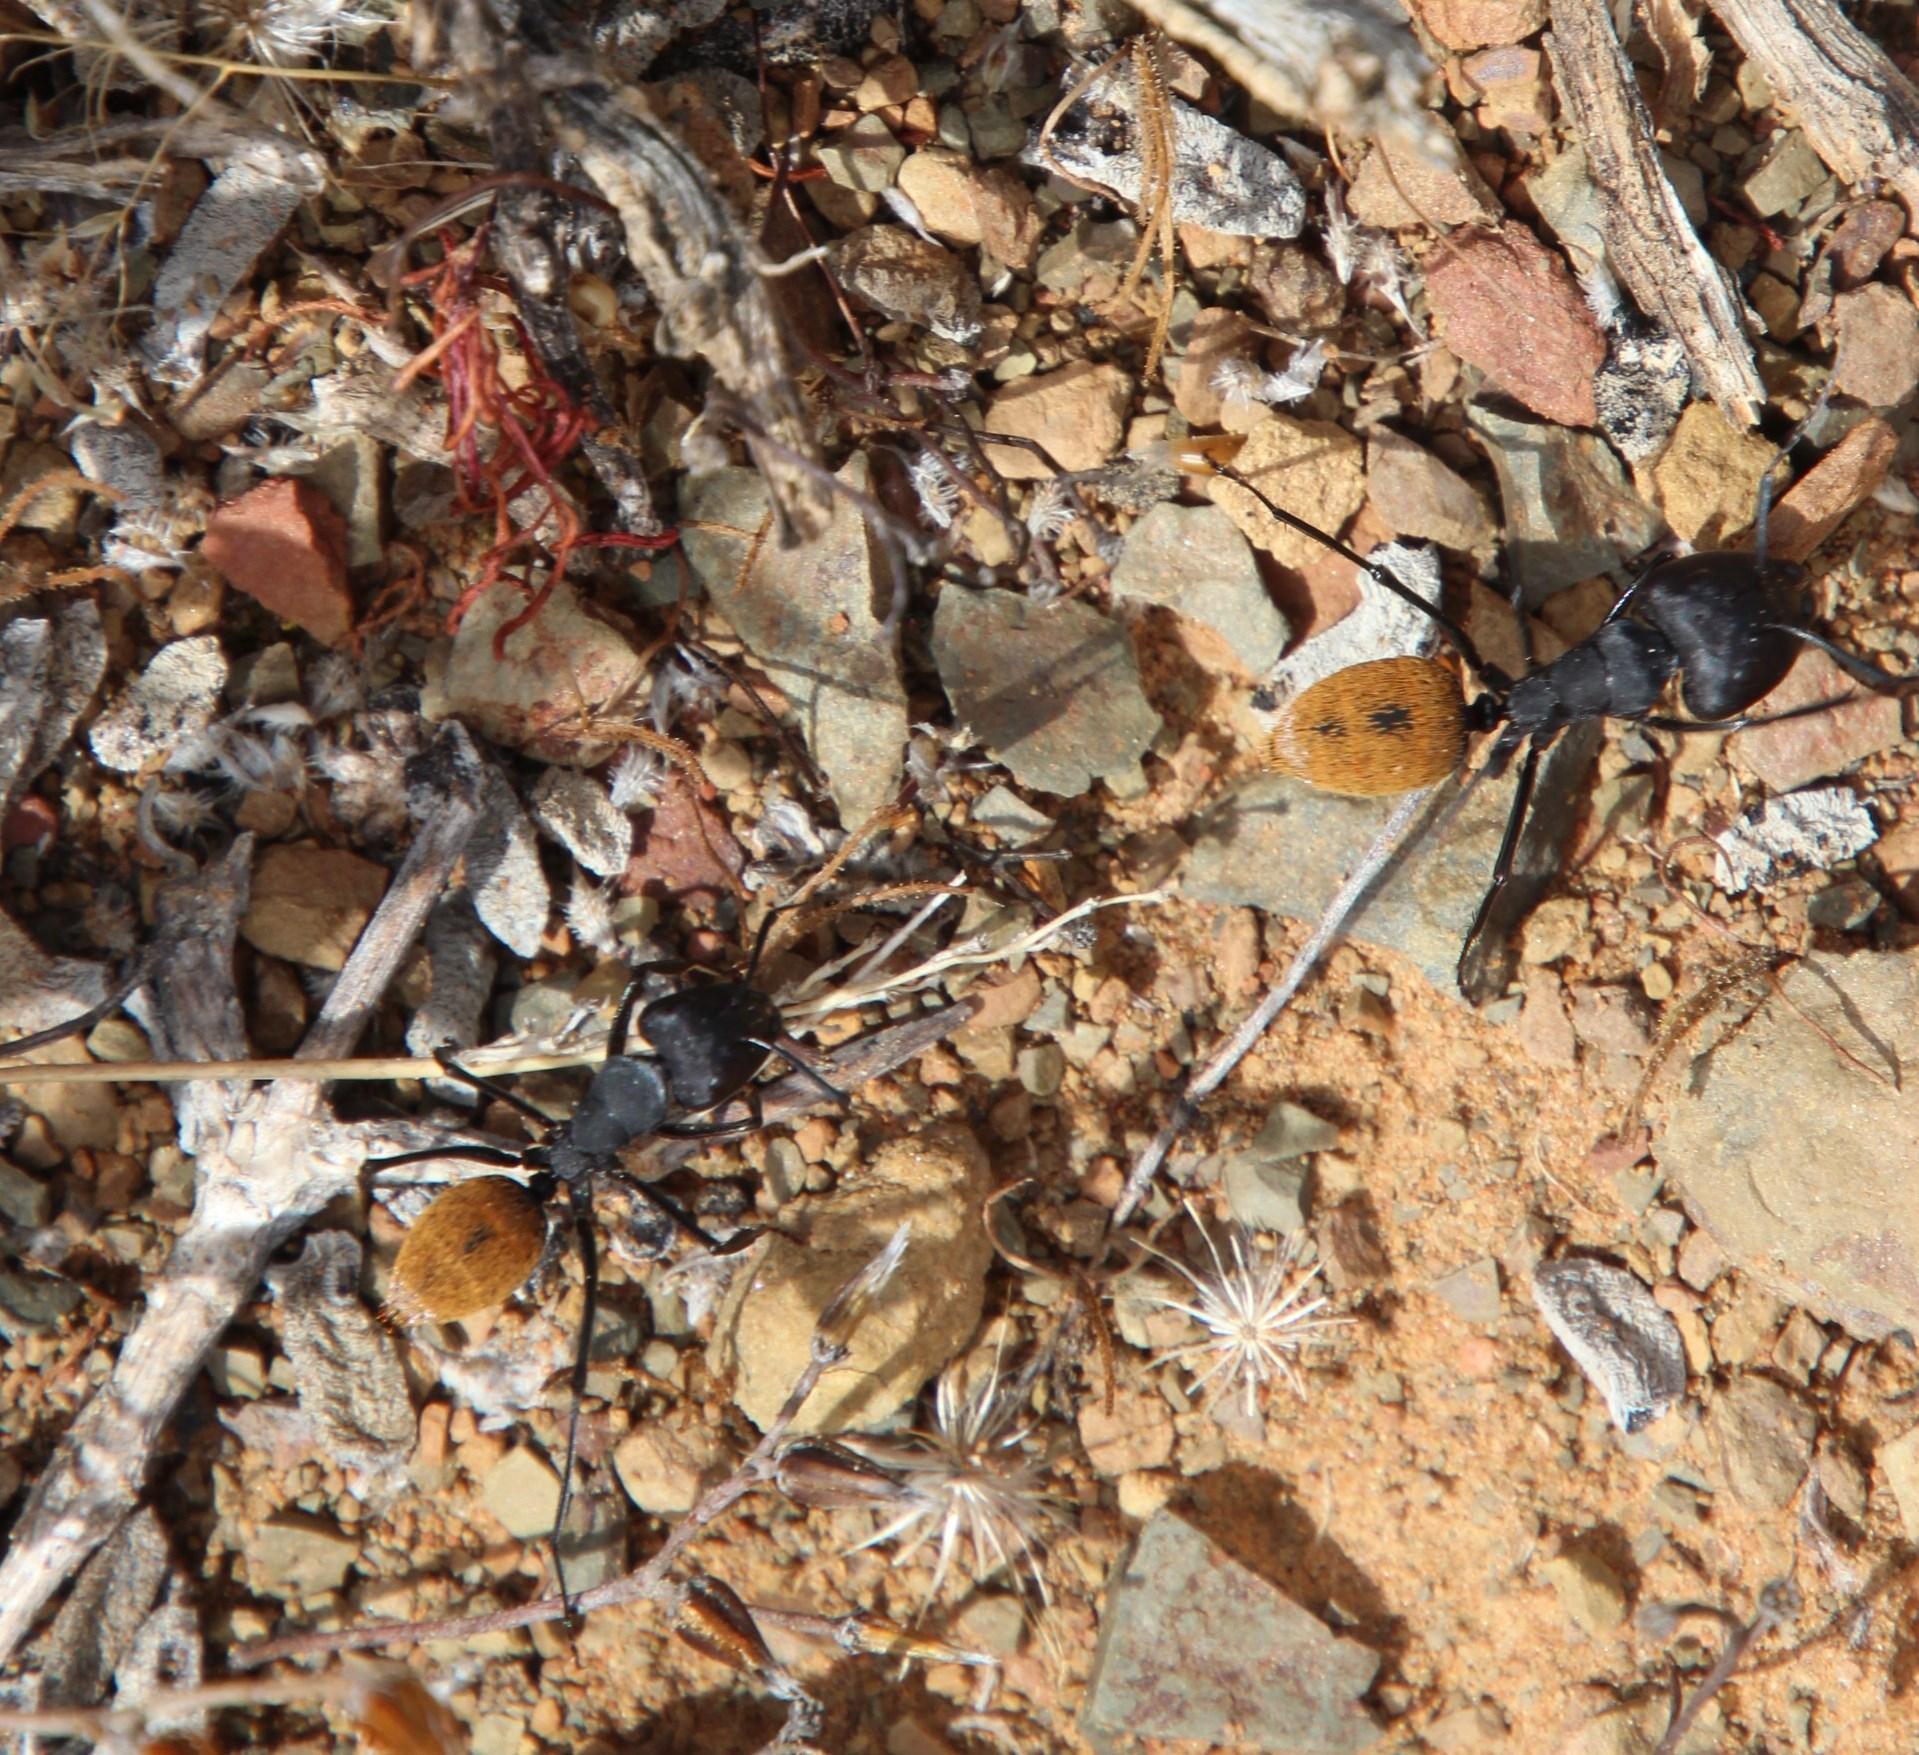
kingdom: Animalia
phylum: Arthropoda
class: Insecta
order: Hymenoptera
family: Formicidae
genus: Camponotus
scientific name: Camponotus fulvopilosus
